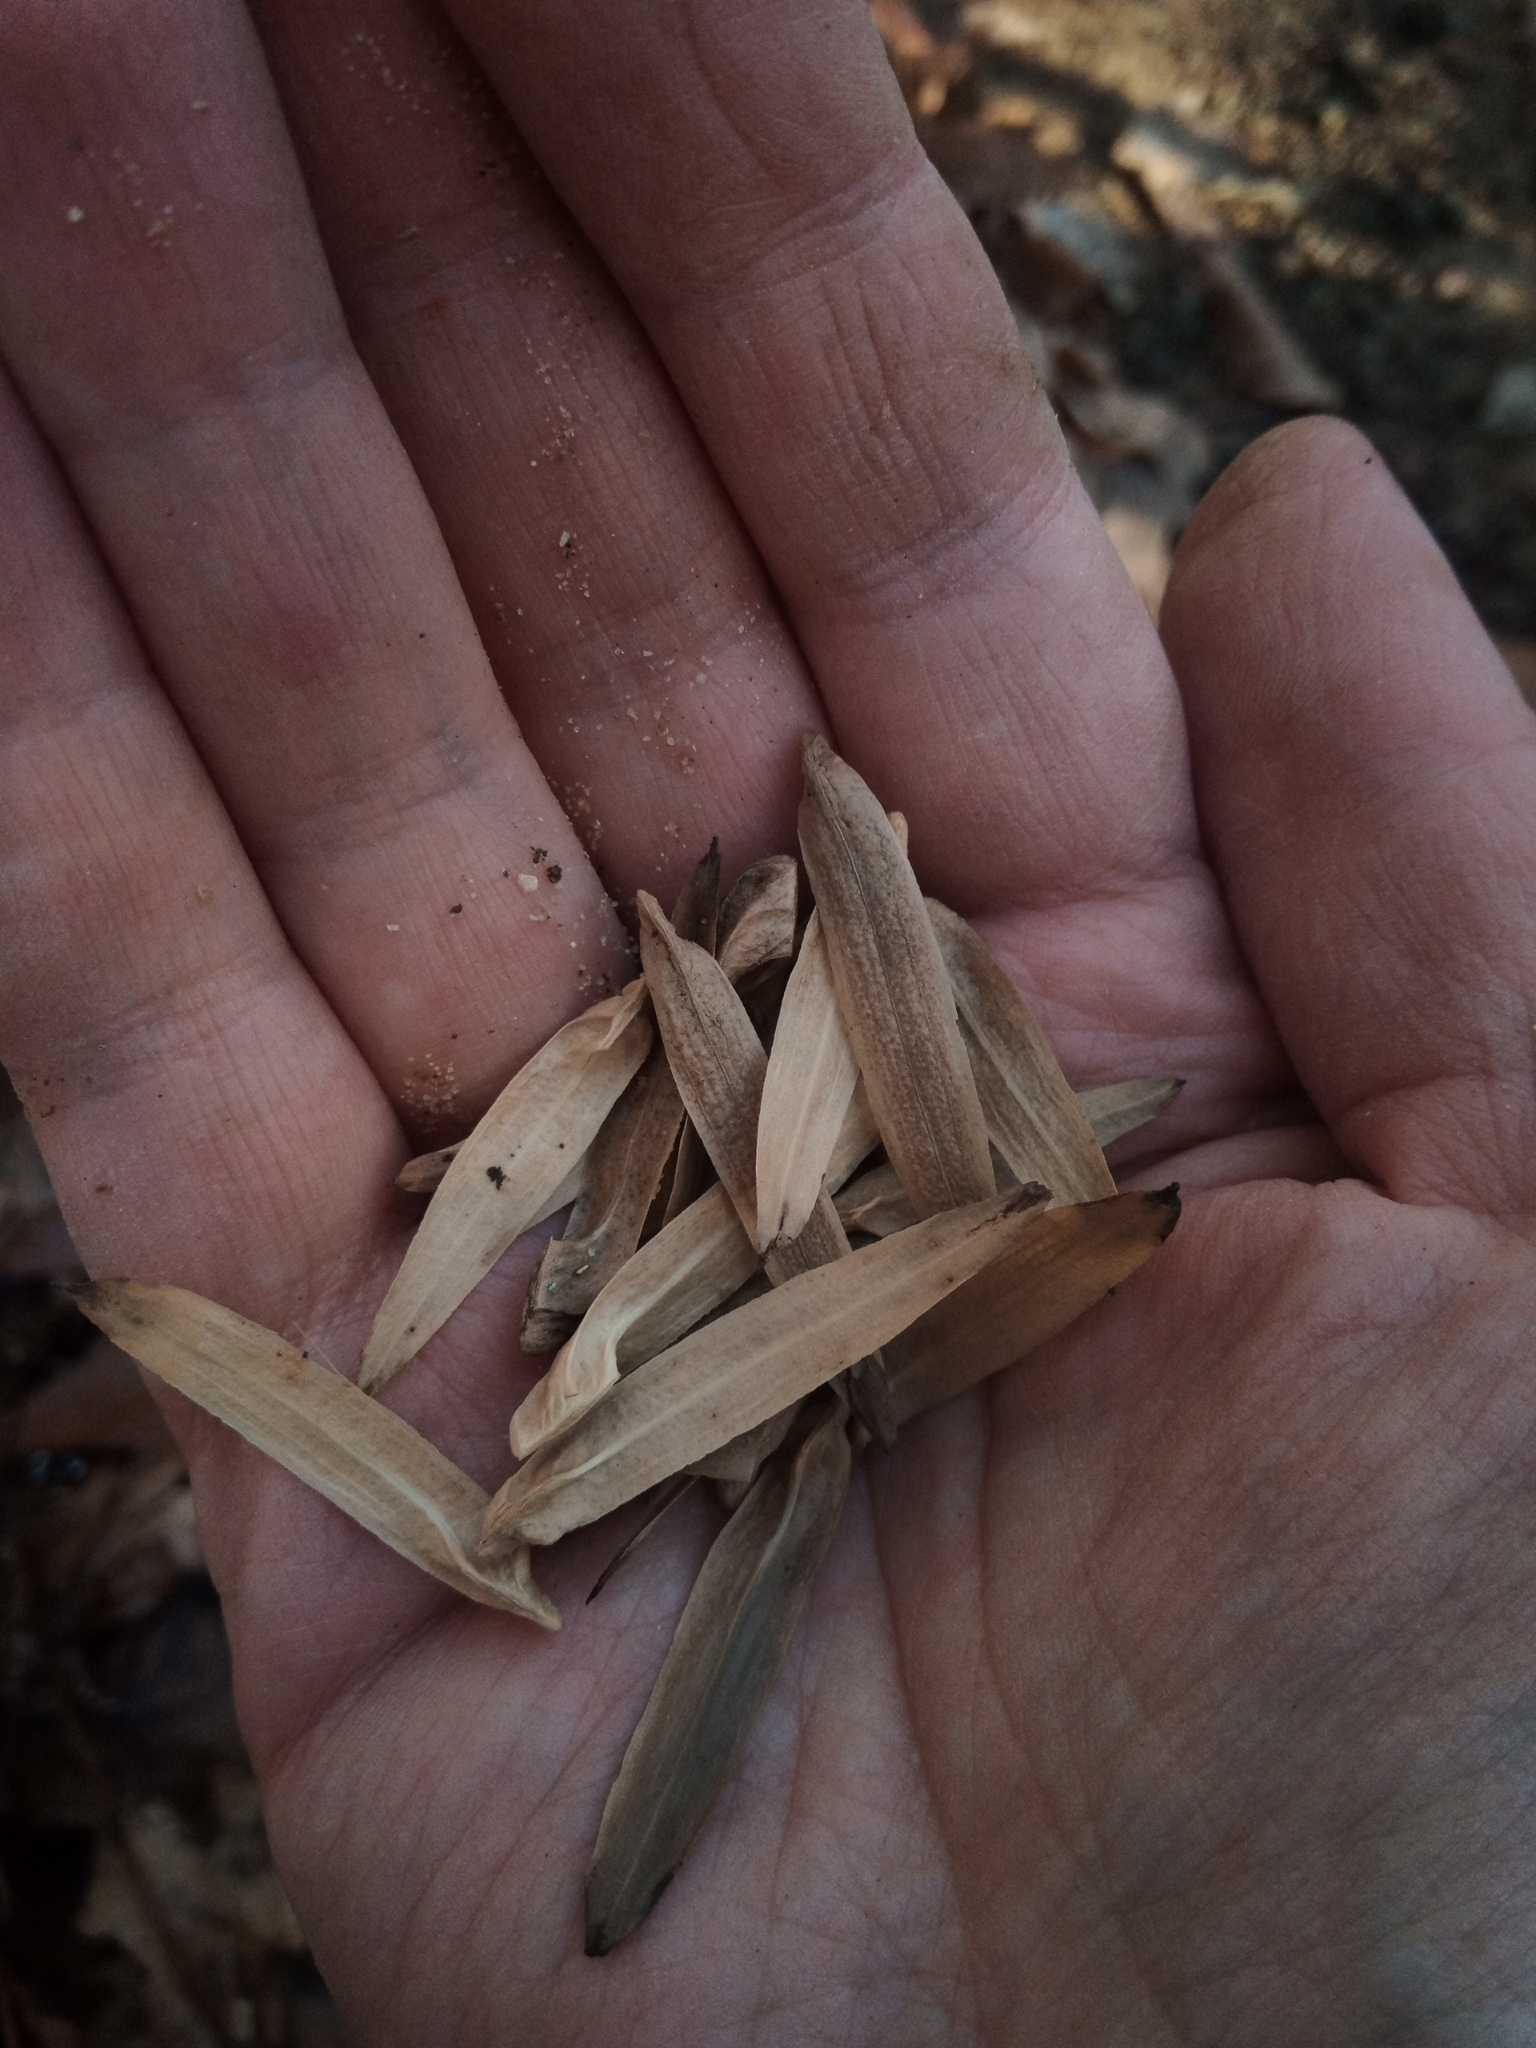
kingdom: Plantae
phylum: Tracheophyta
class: Magnoliopsida
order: Magnoliales
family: Magnoliaceae
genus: Liriodendron
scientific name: Liriodendron tulipifera
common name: Tulip tree
